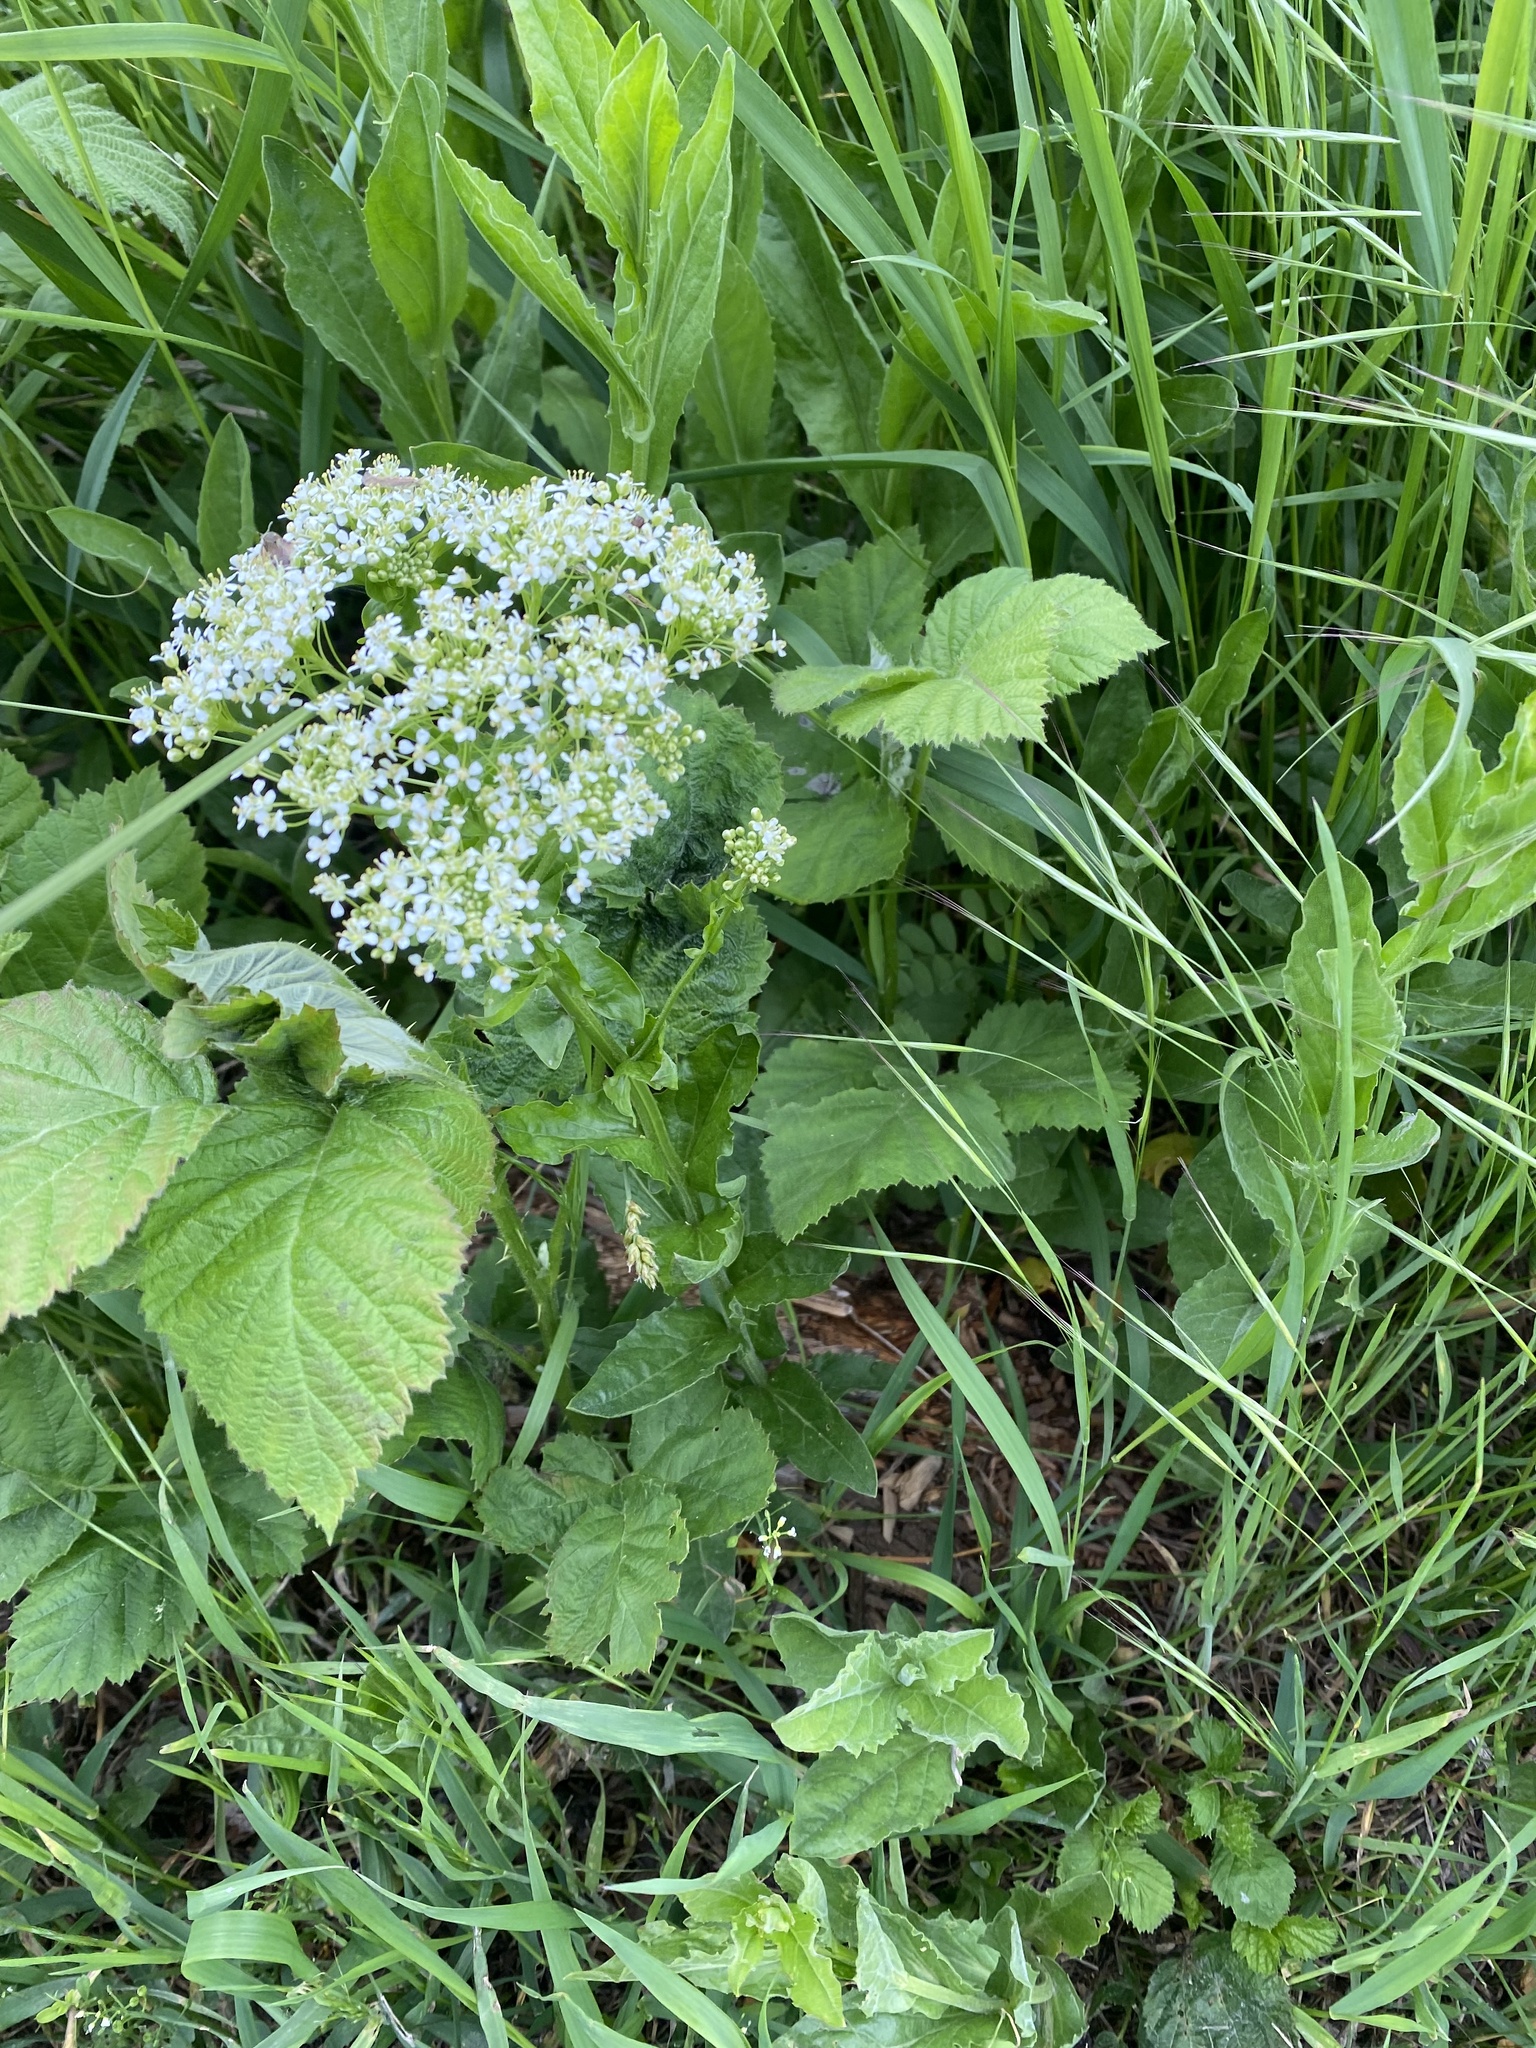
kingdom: Plantae
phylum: Tracheophyta
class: Magnoliopsida
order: Brassicales
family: Brassicaceae
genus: Lepidium
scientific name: Lepidium draba
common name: Hoary cress
